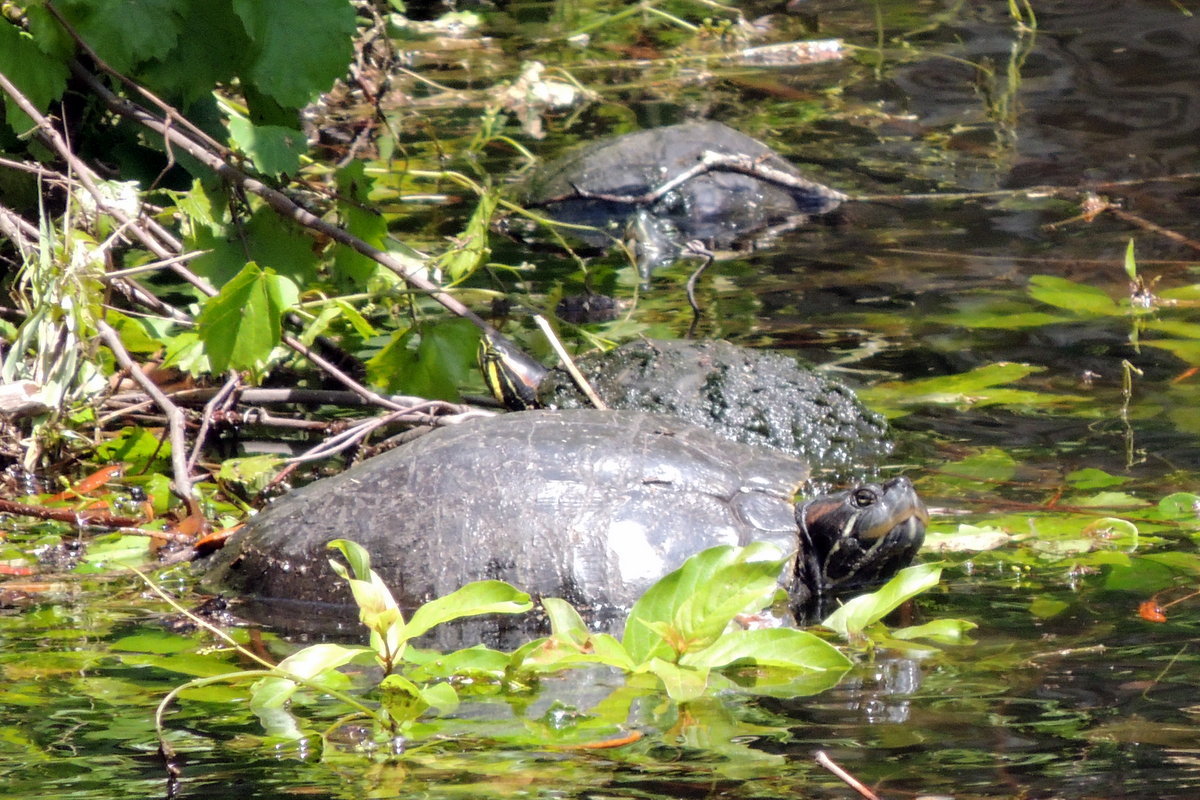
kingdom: Animalia
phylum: Chordata
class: Testudines
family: Emydidae
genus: Trachemys
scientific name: Trachemys scripta
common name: Slider
